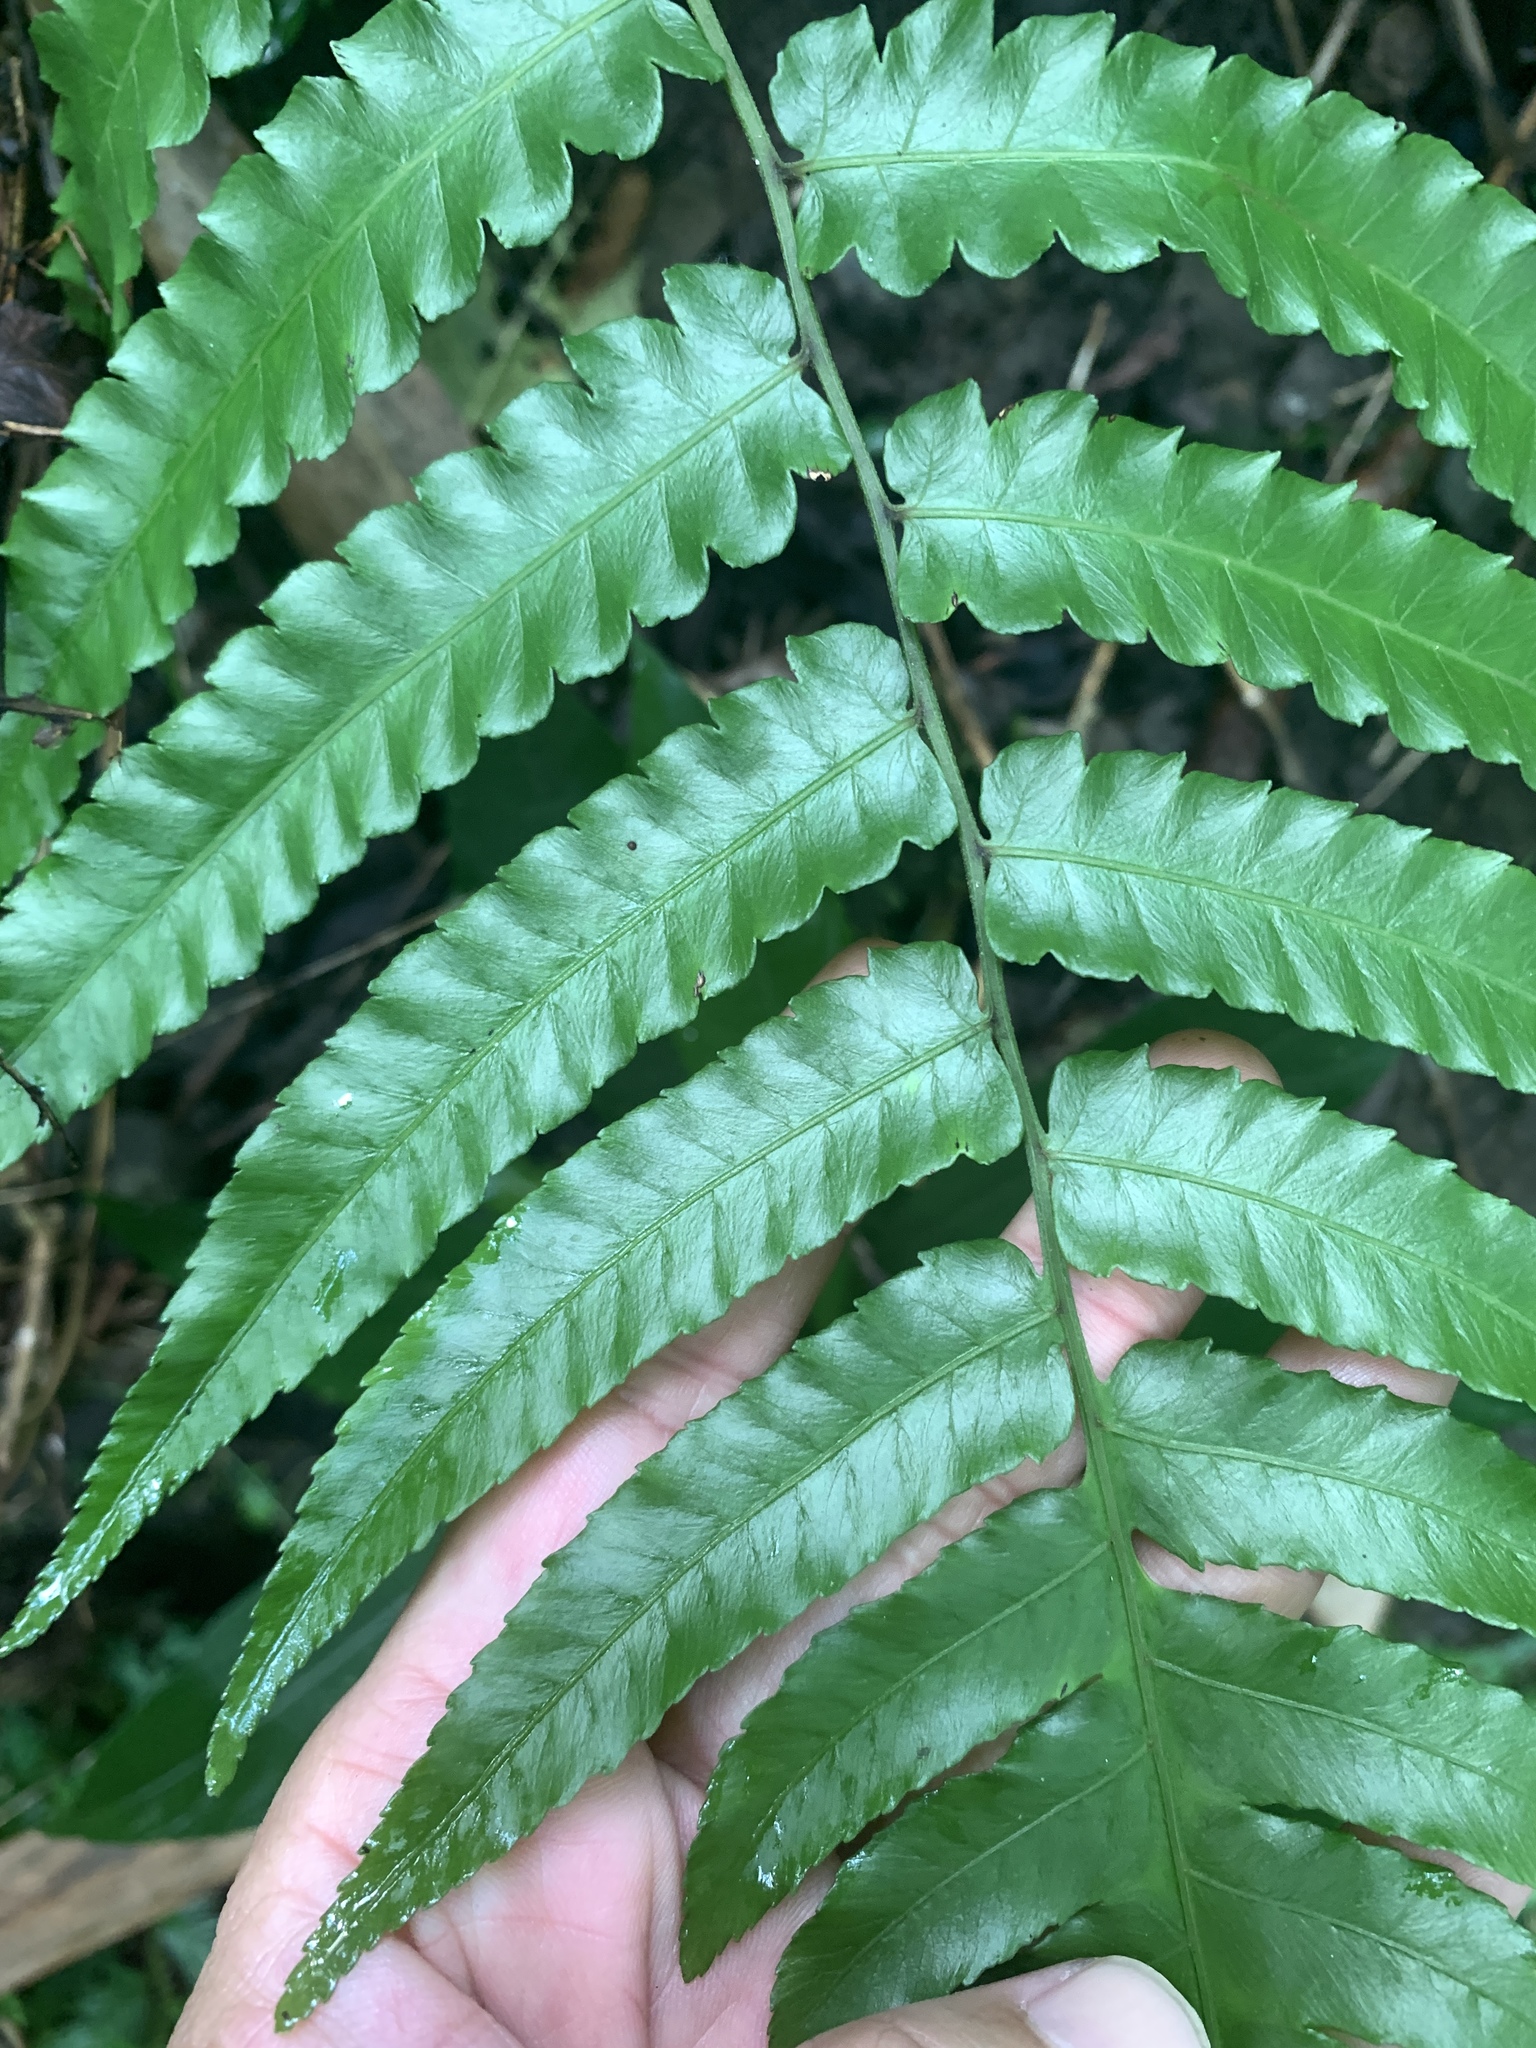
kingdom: Plantae
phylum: Tracheophyta
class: Polypodiopsida
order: Polypodiales
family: Athyriaceae
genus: Diplazium
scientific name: Diplazium dilatatum
